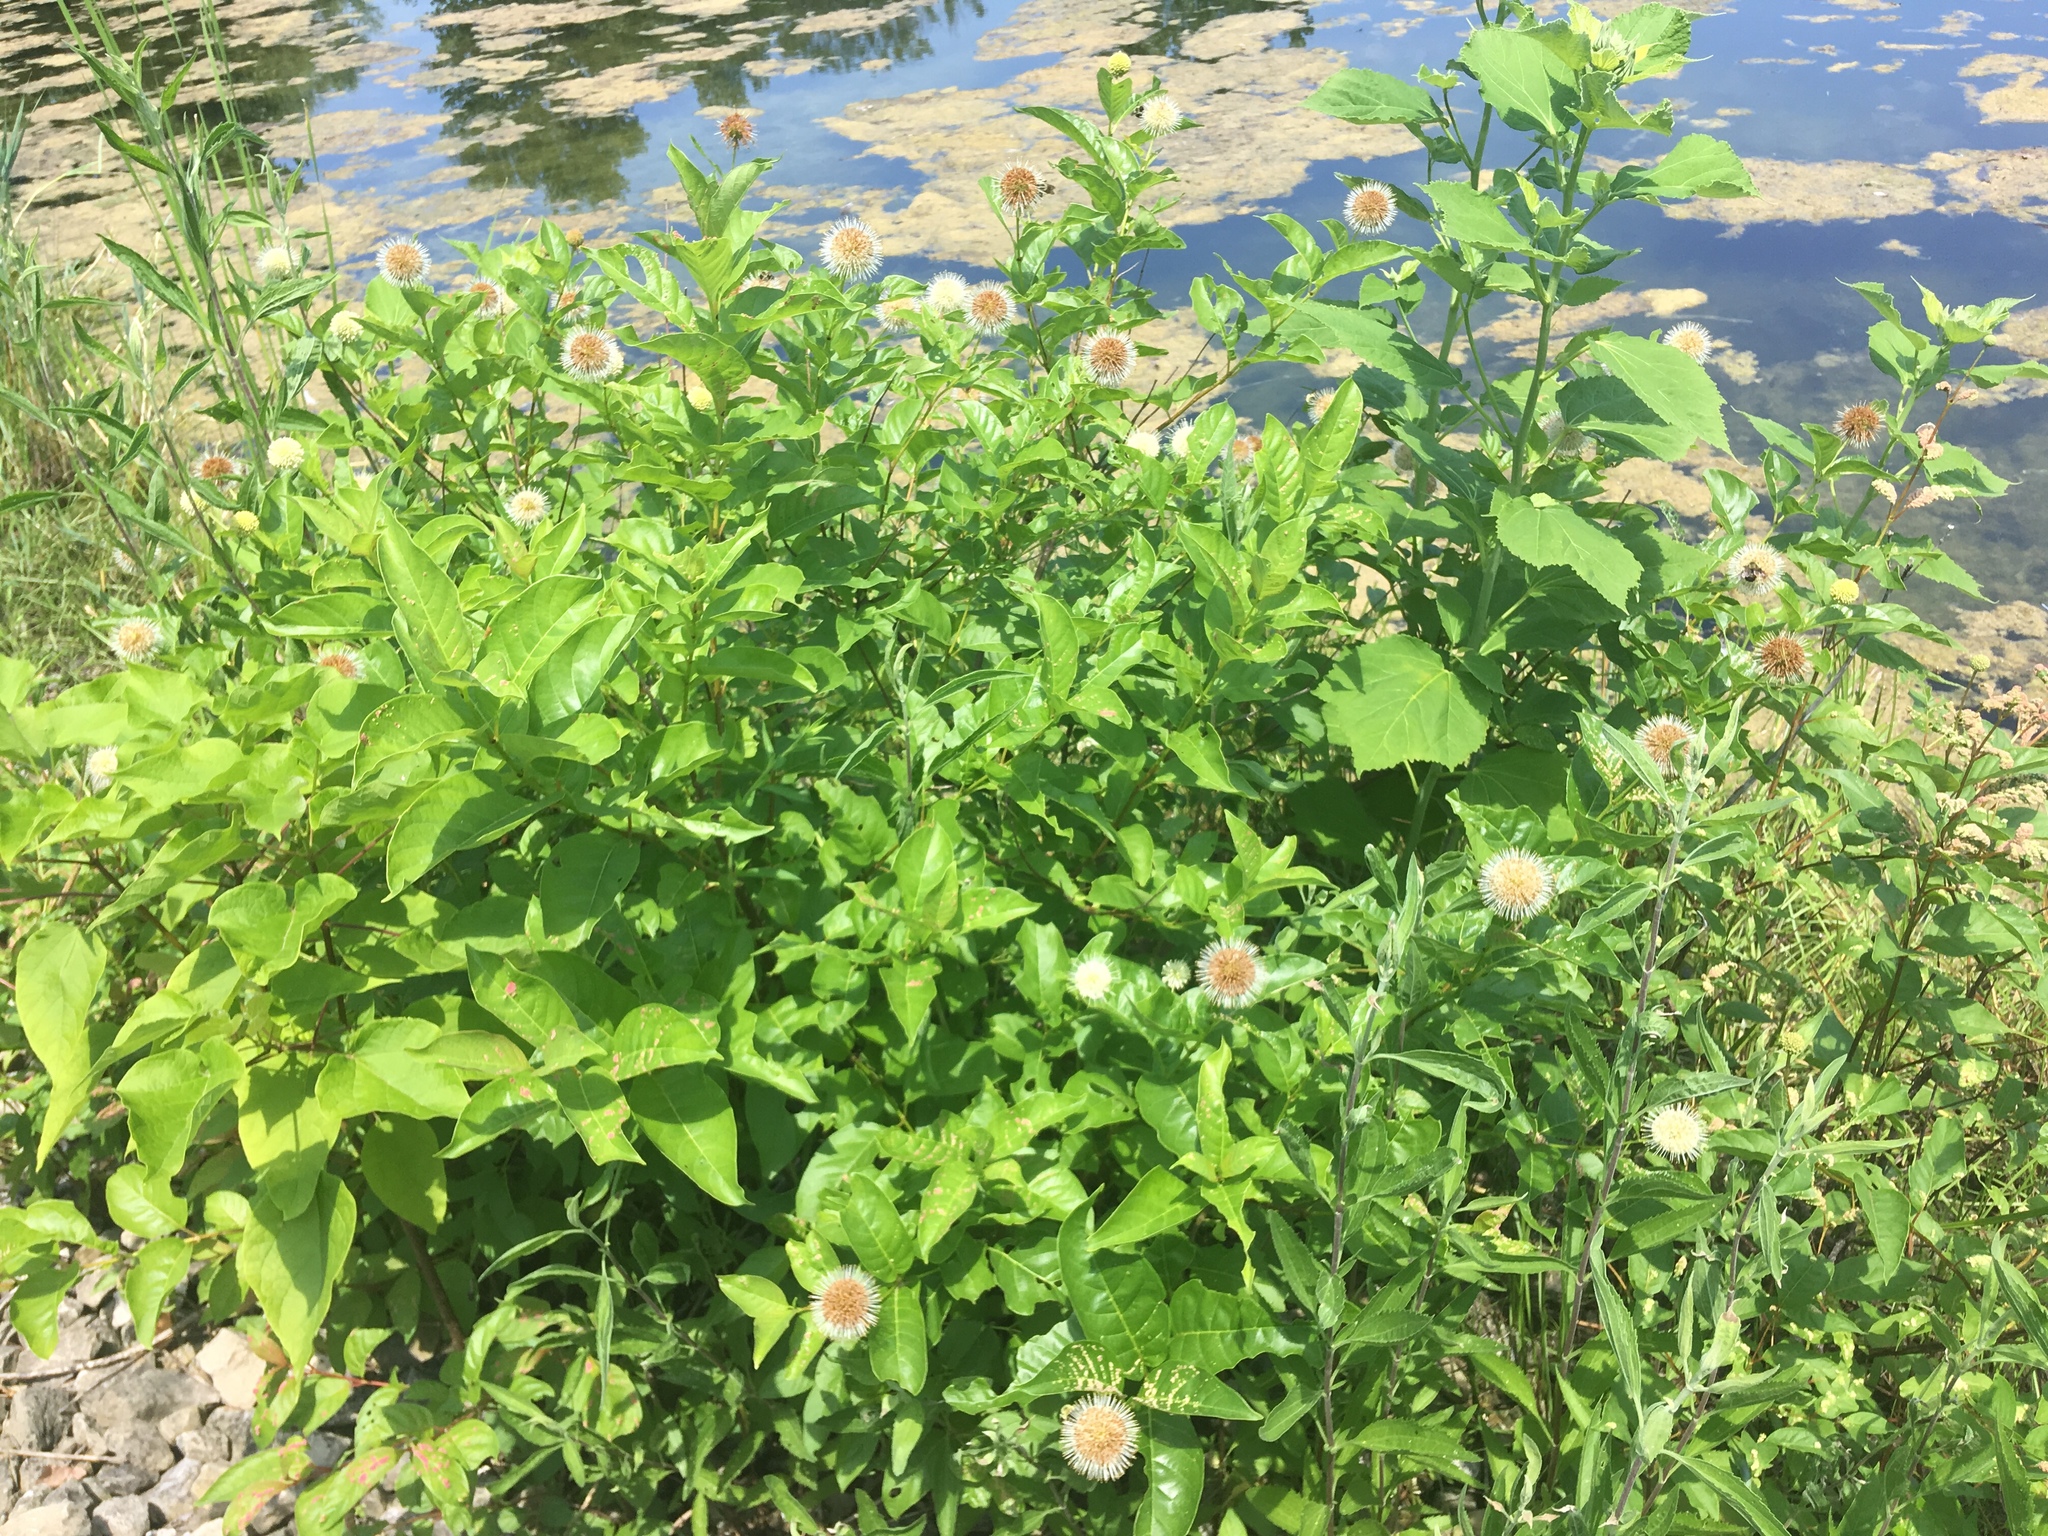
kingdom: Plantae
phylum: Tracheophyta
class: Magnoliopsida
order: Gentianales
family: Rubiaceae
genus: Cephalanthus
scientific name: Cephalanthus occidentalis
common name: Button-willow
